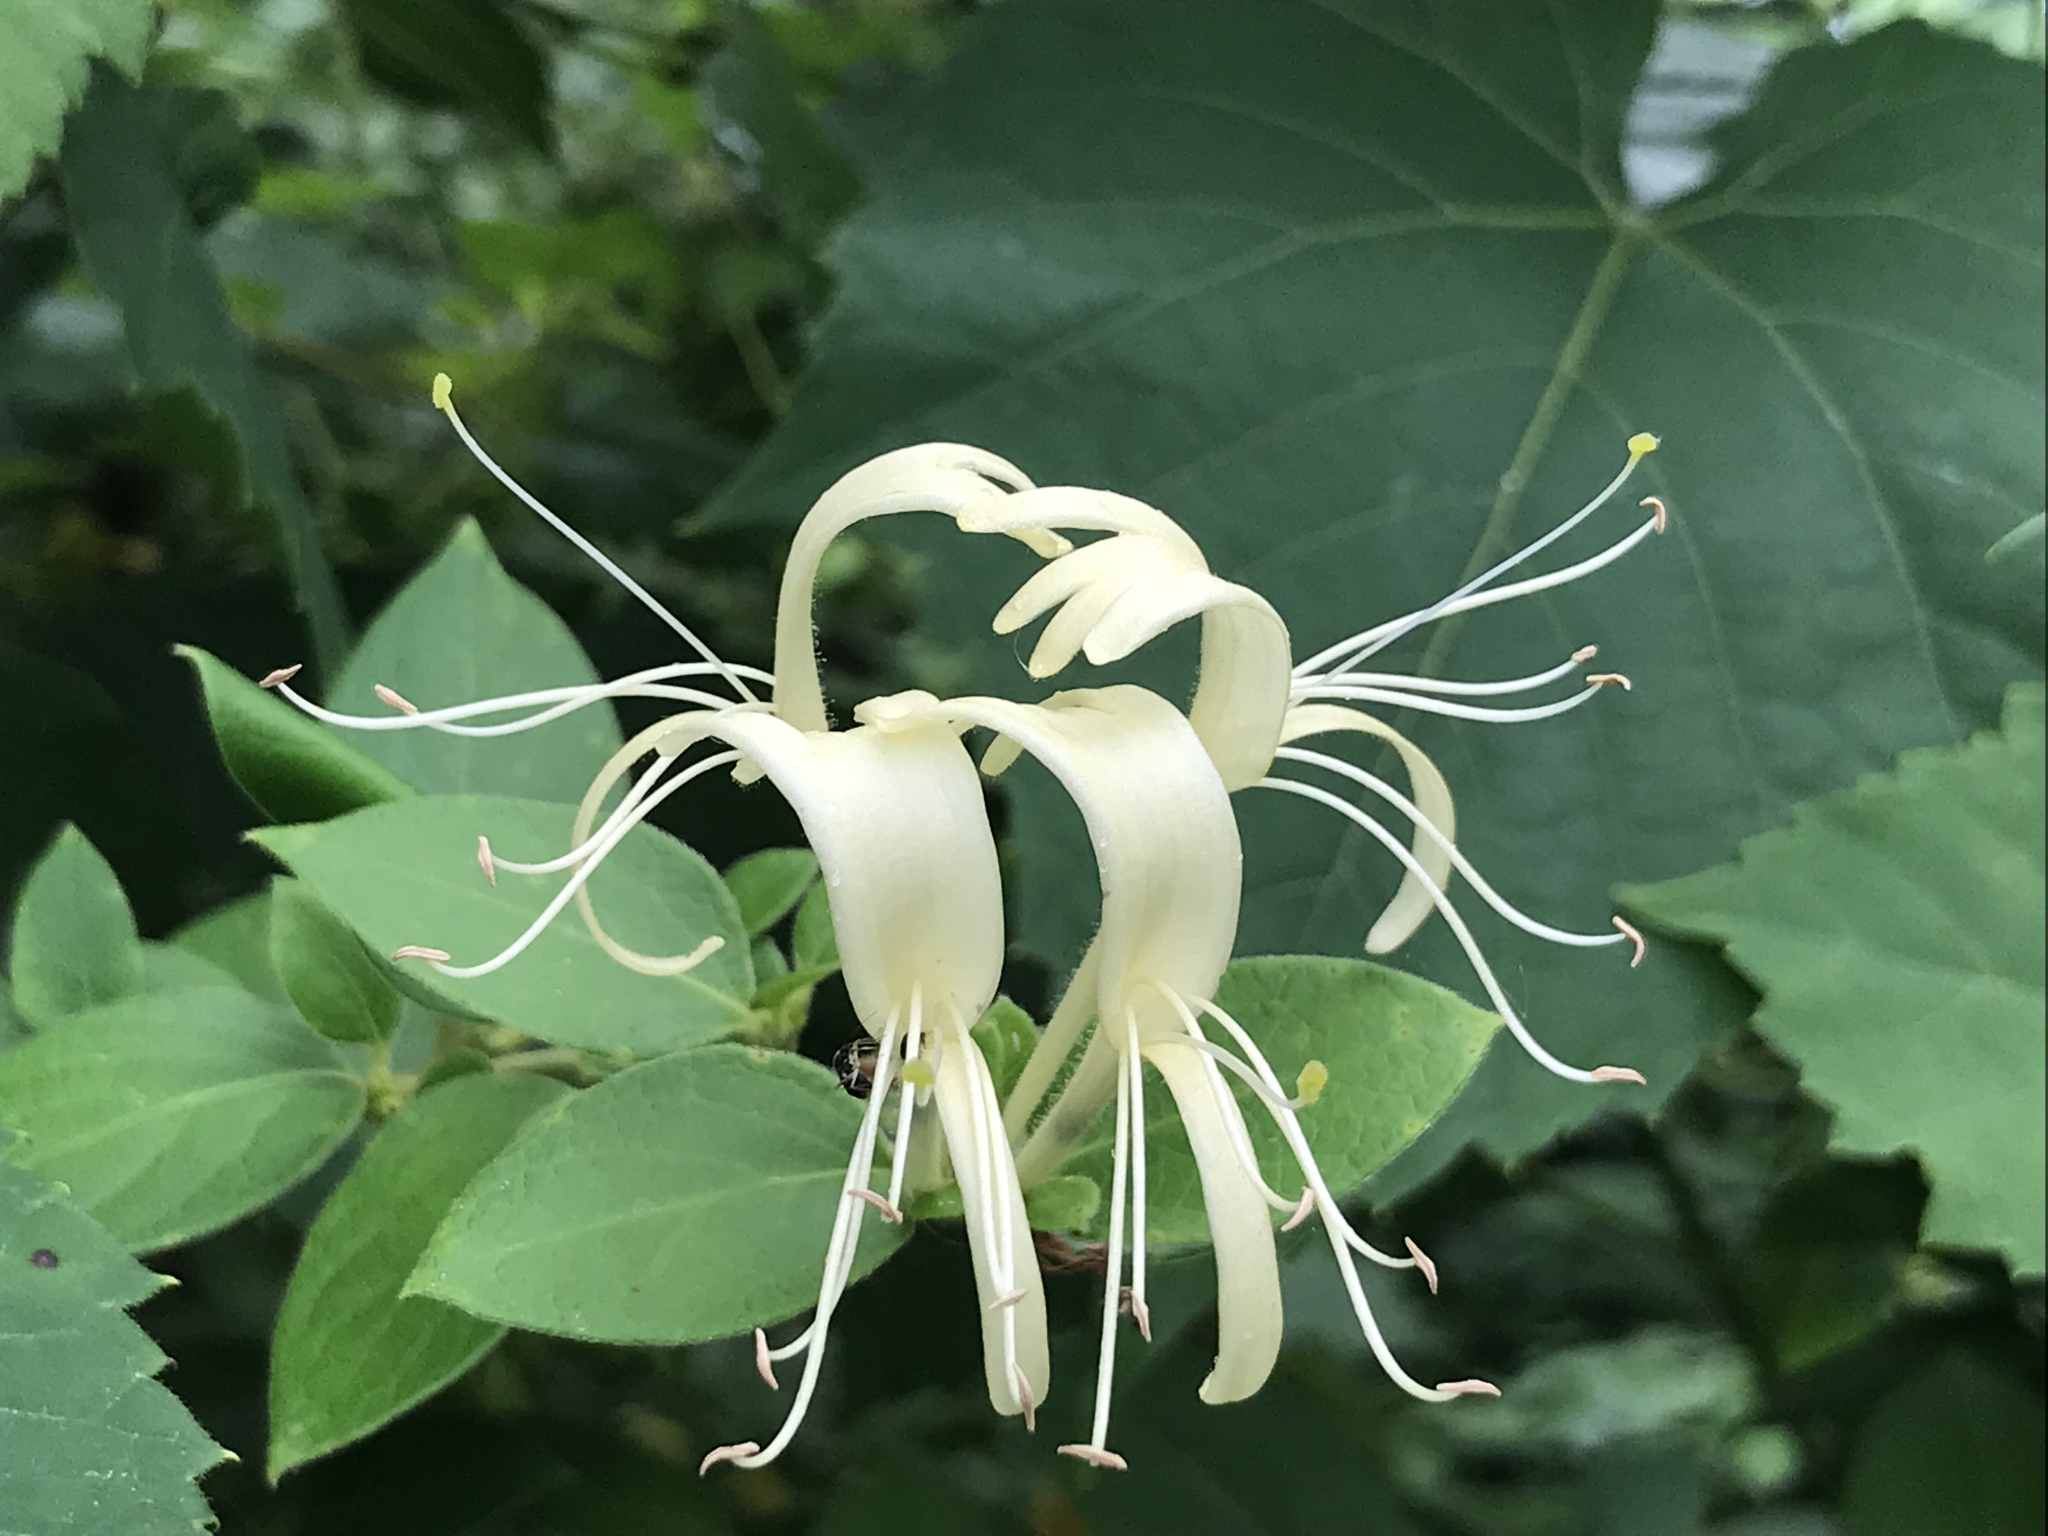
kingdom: Plantae
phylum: Tracheophyta
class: Magnoliopsida
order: Dipsacales
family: Caprifoliaceae
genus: Lonicera
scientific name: Lonicera japonica
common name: Japanese honeysuckle
